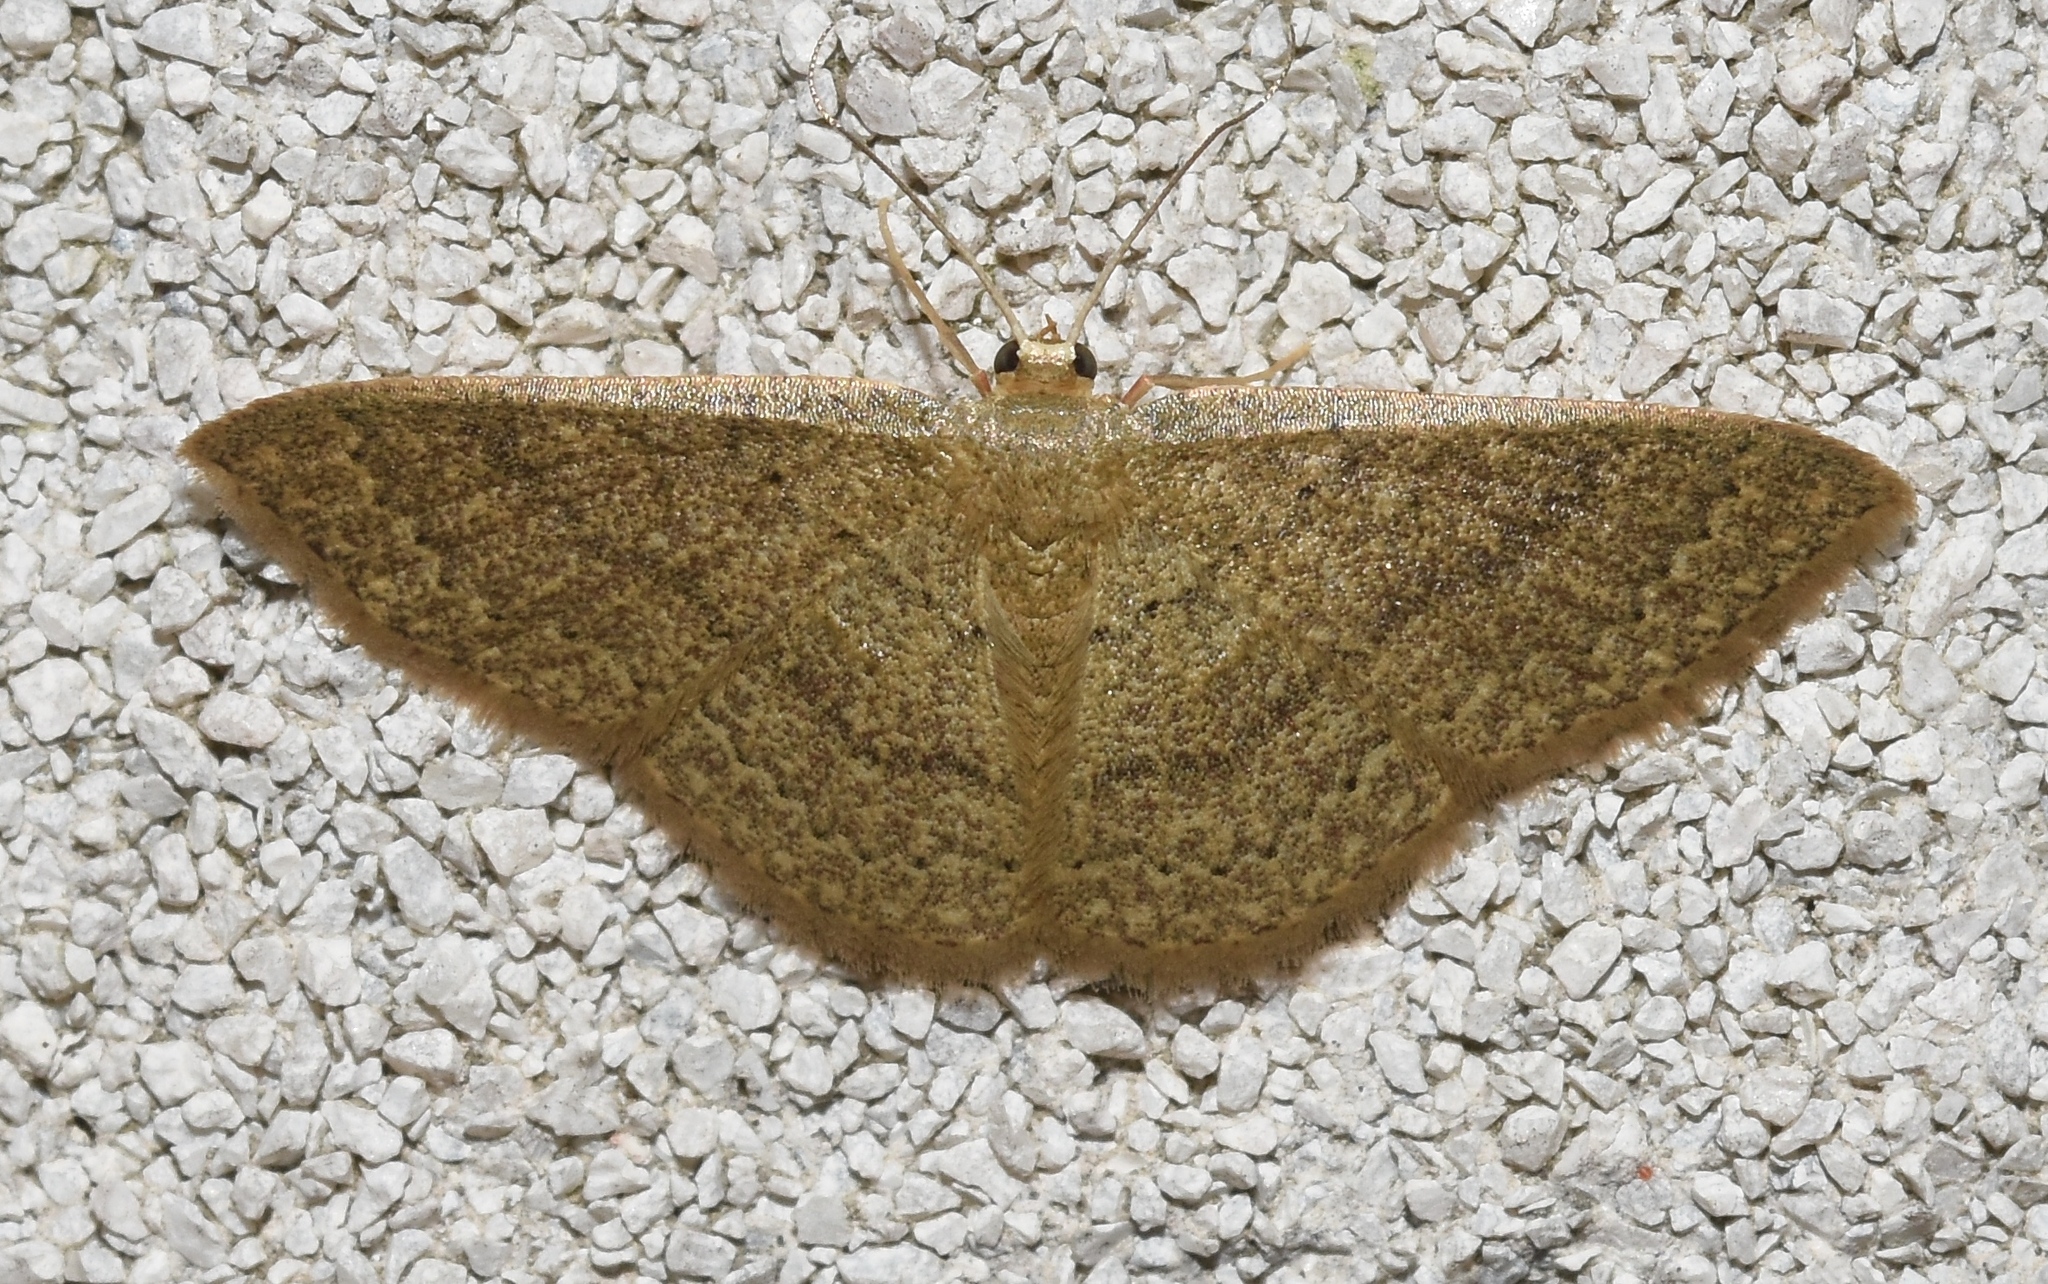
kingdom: Animalia
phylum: Arthropoda
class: Insecta
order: Lepidoptera
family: Geometridae
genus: Pleuroprucha
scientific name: Pleuroprucha insulsaria
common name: Common tan wave
